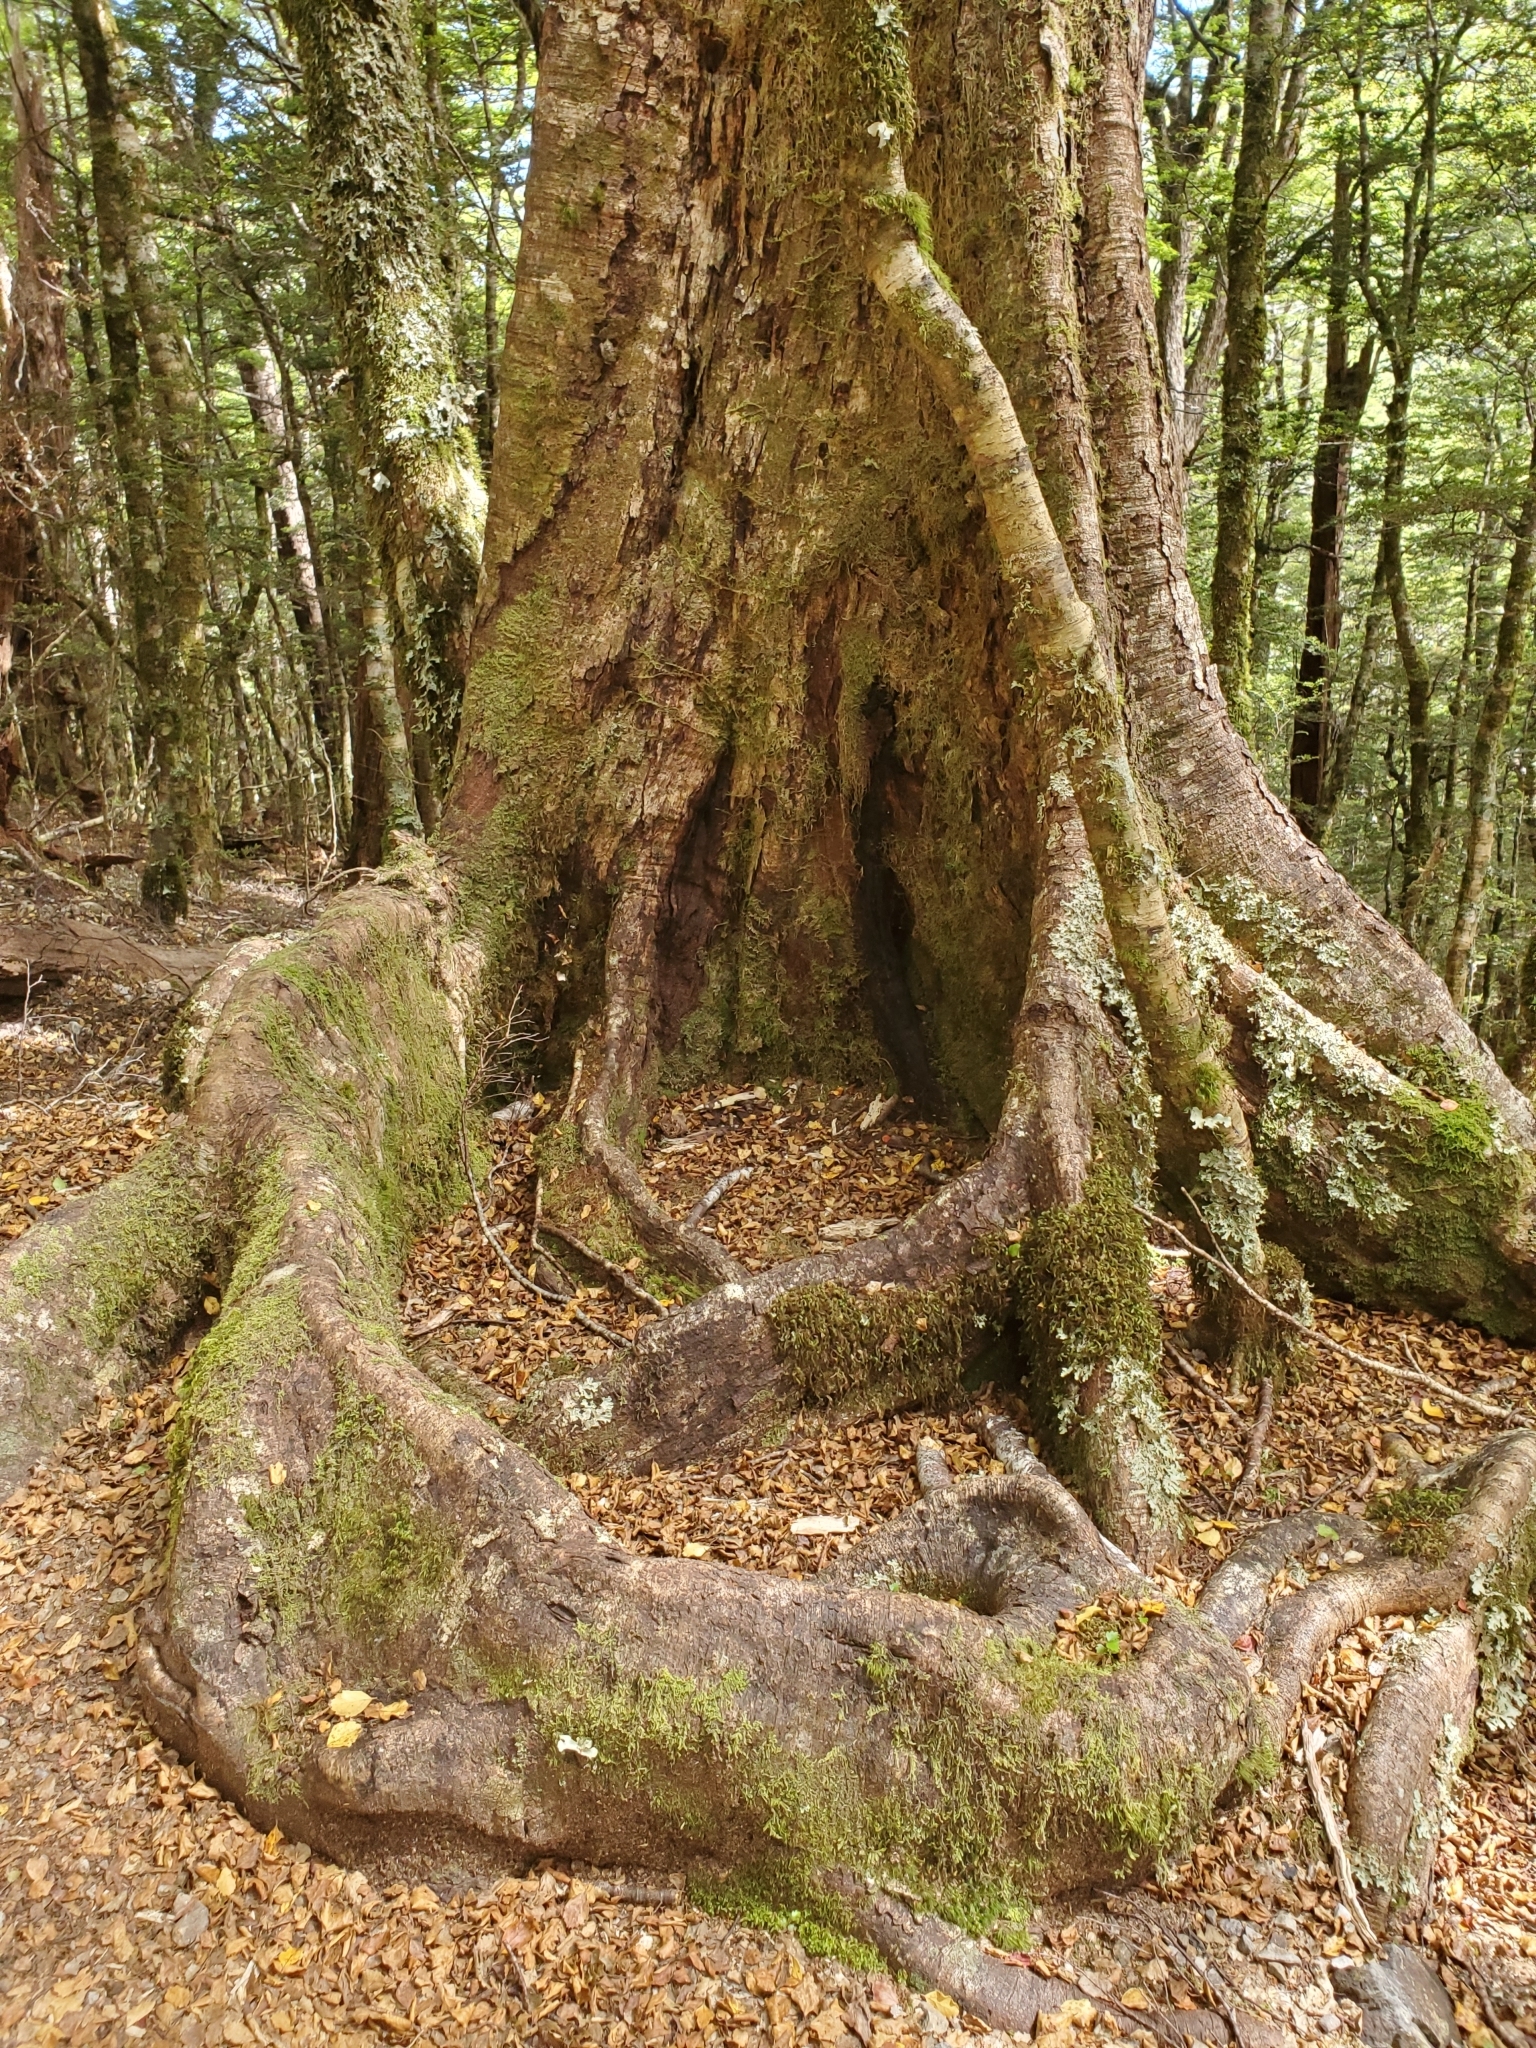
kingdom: Plantae
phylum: Tracheophyta
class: Magnoliopsida
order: Fagales
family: Nothofagaceae
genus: Nothofagus
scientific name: Nothofagus fusca
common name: Red beech
